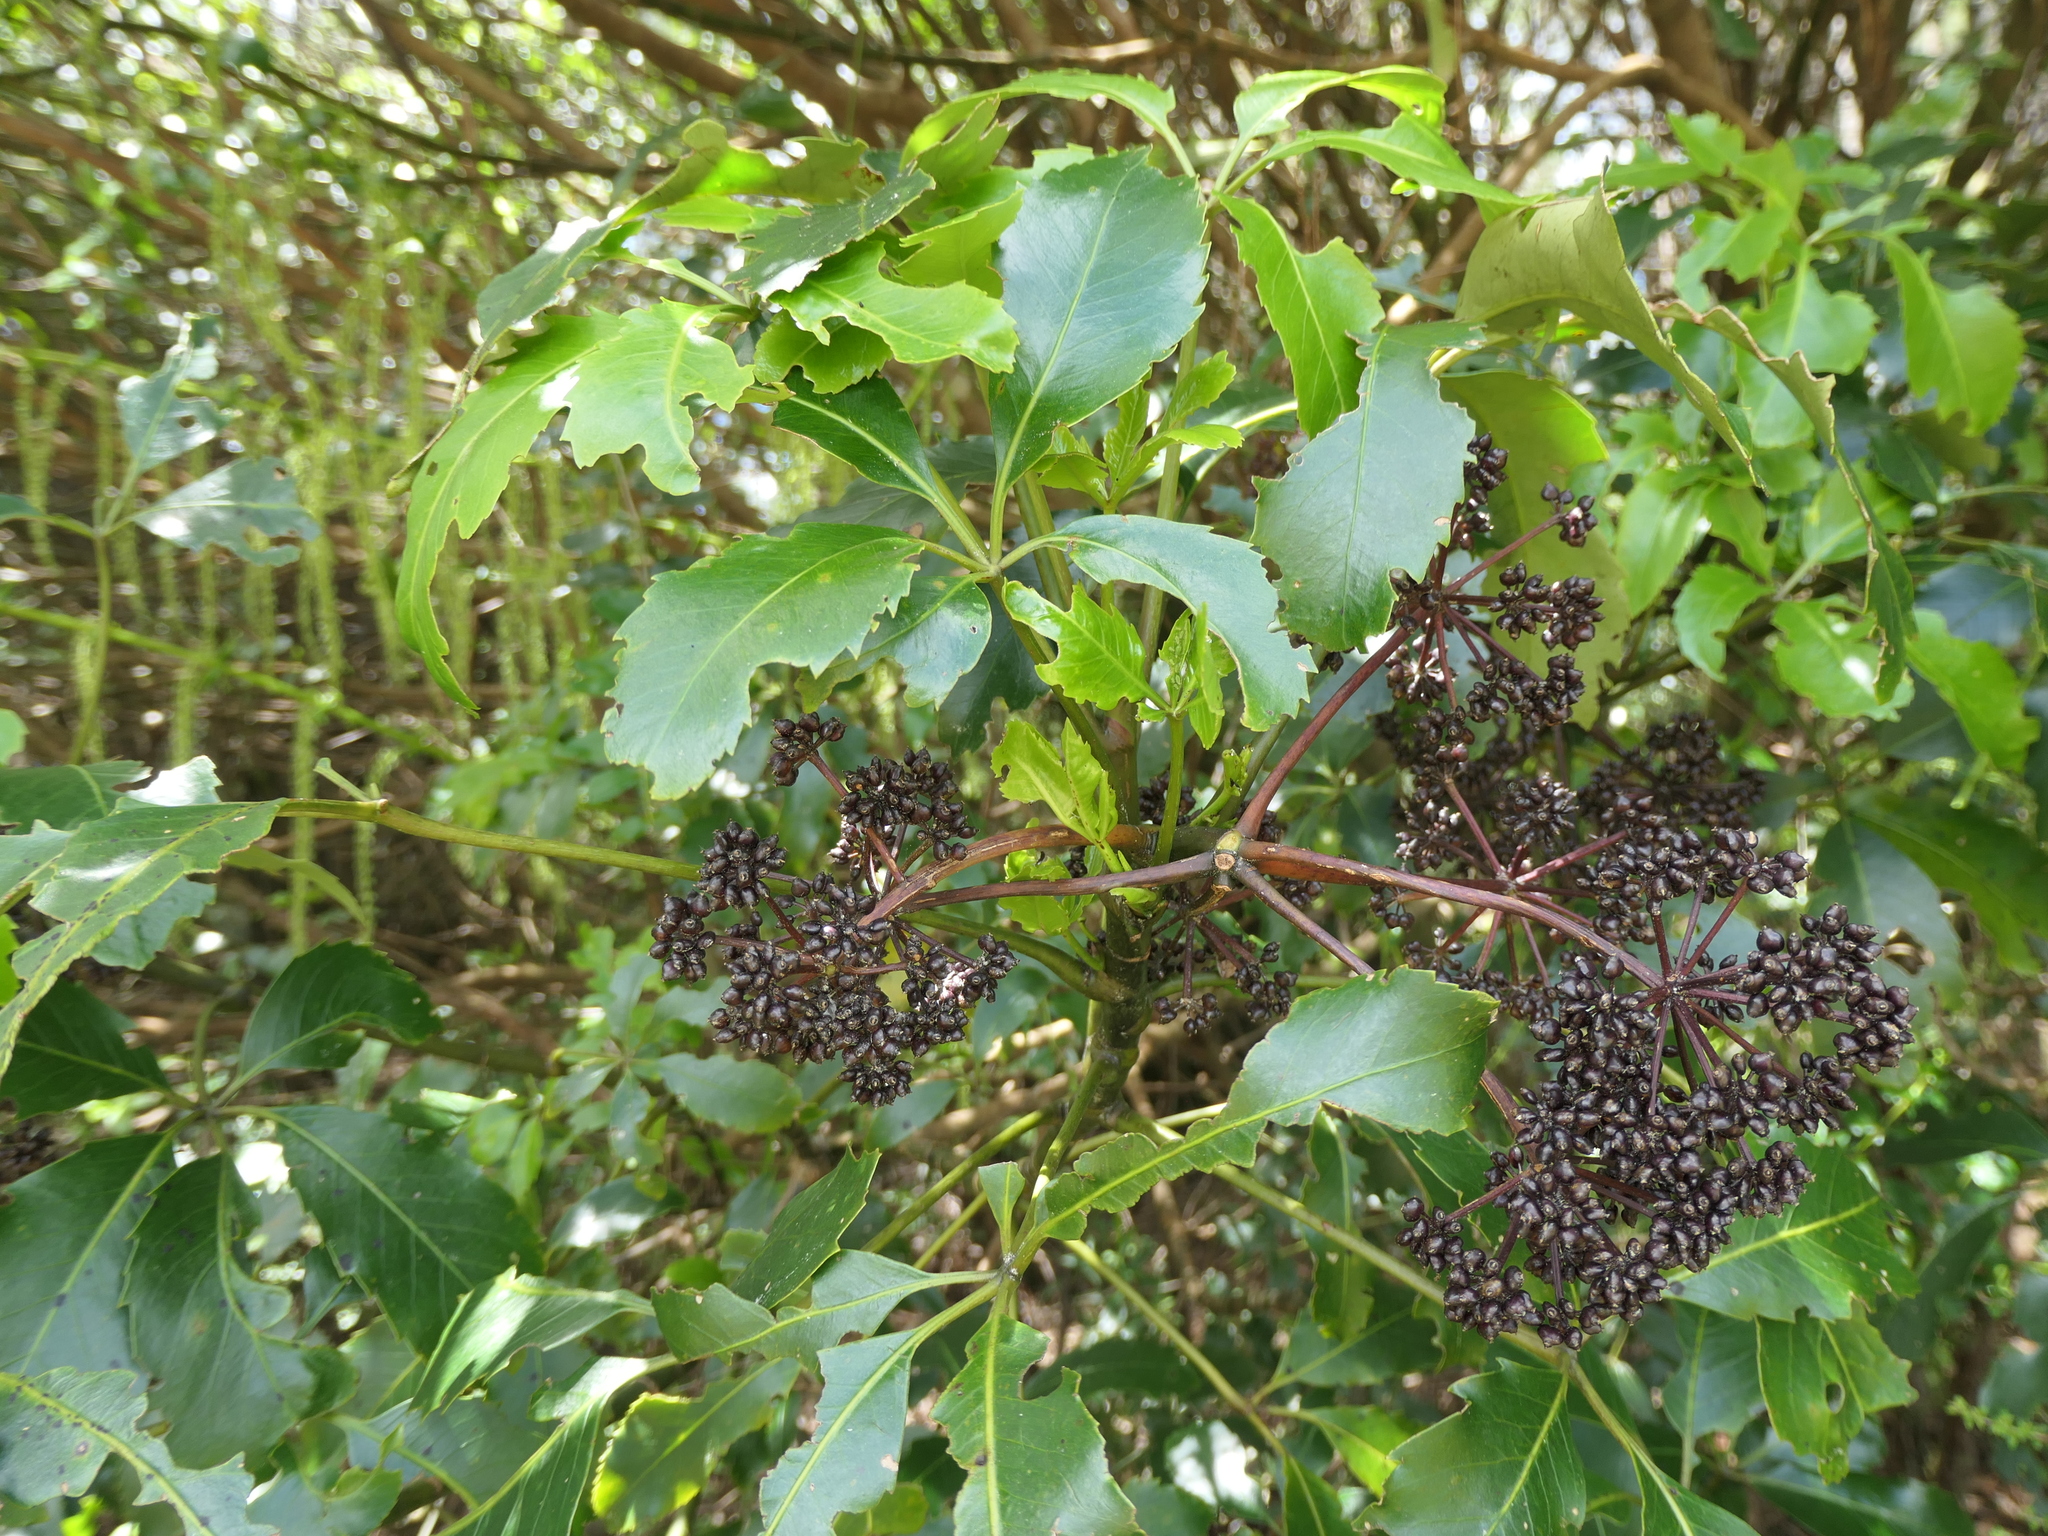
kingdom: Plantae
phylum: Tracheophyta
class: Magnoliopsida
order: Apiales
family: Araliaceae
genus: Neopanax
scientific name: Neopanax arboreus
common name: Five-fingers
